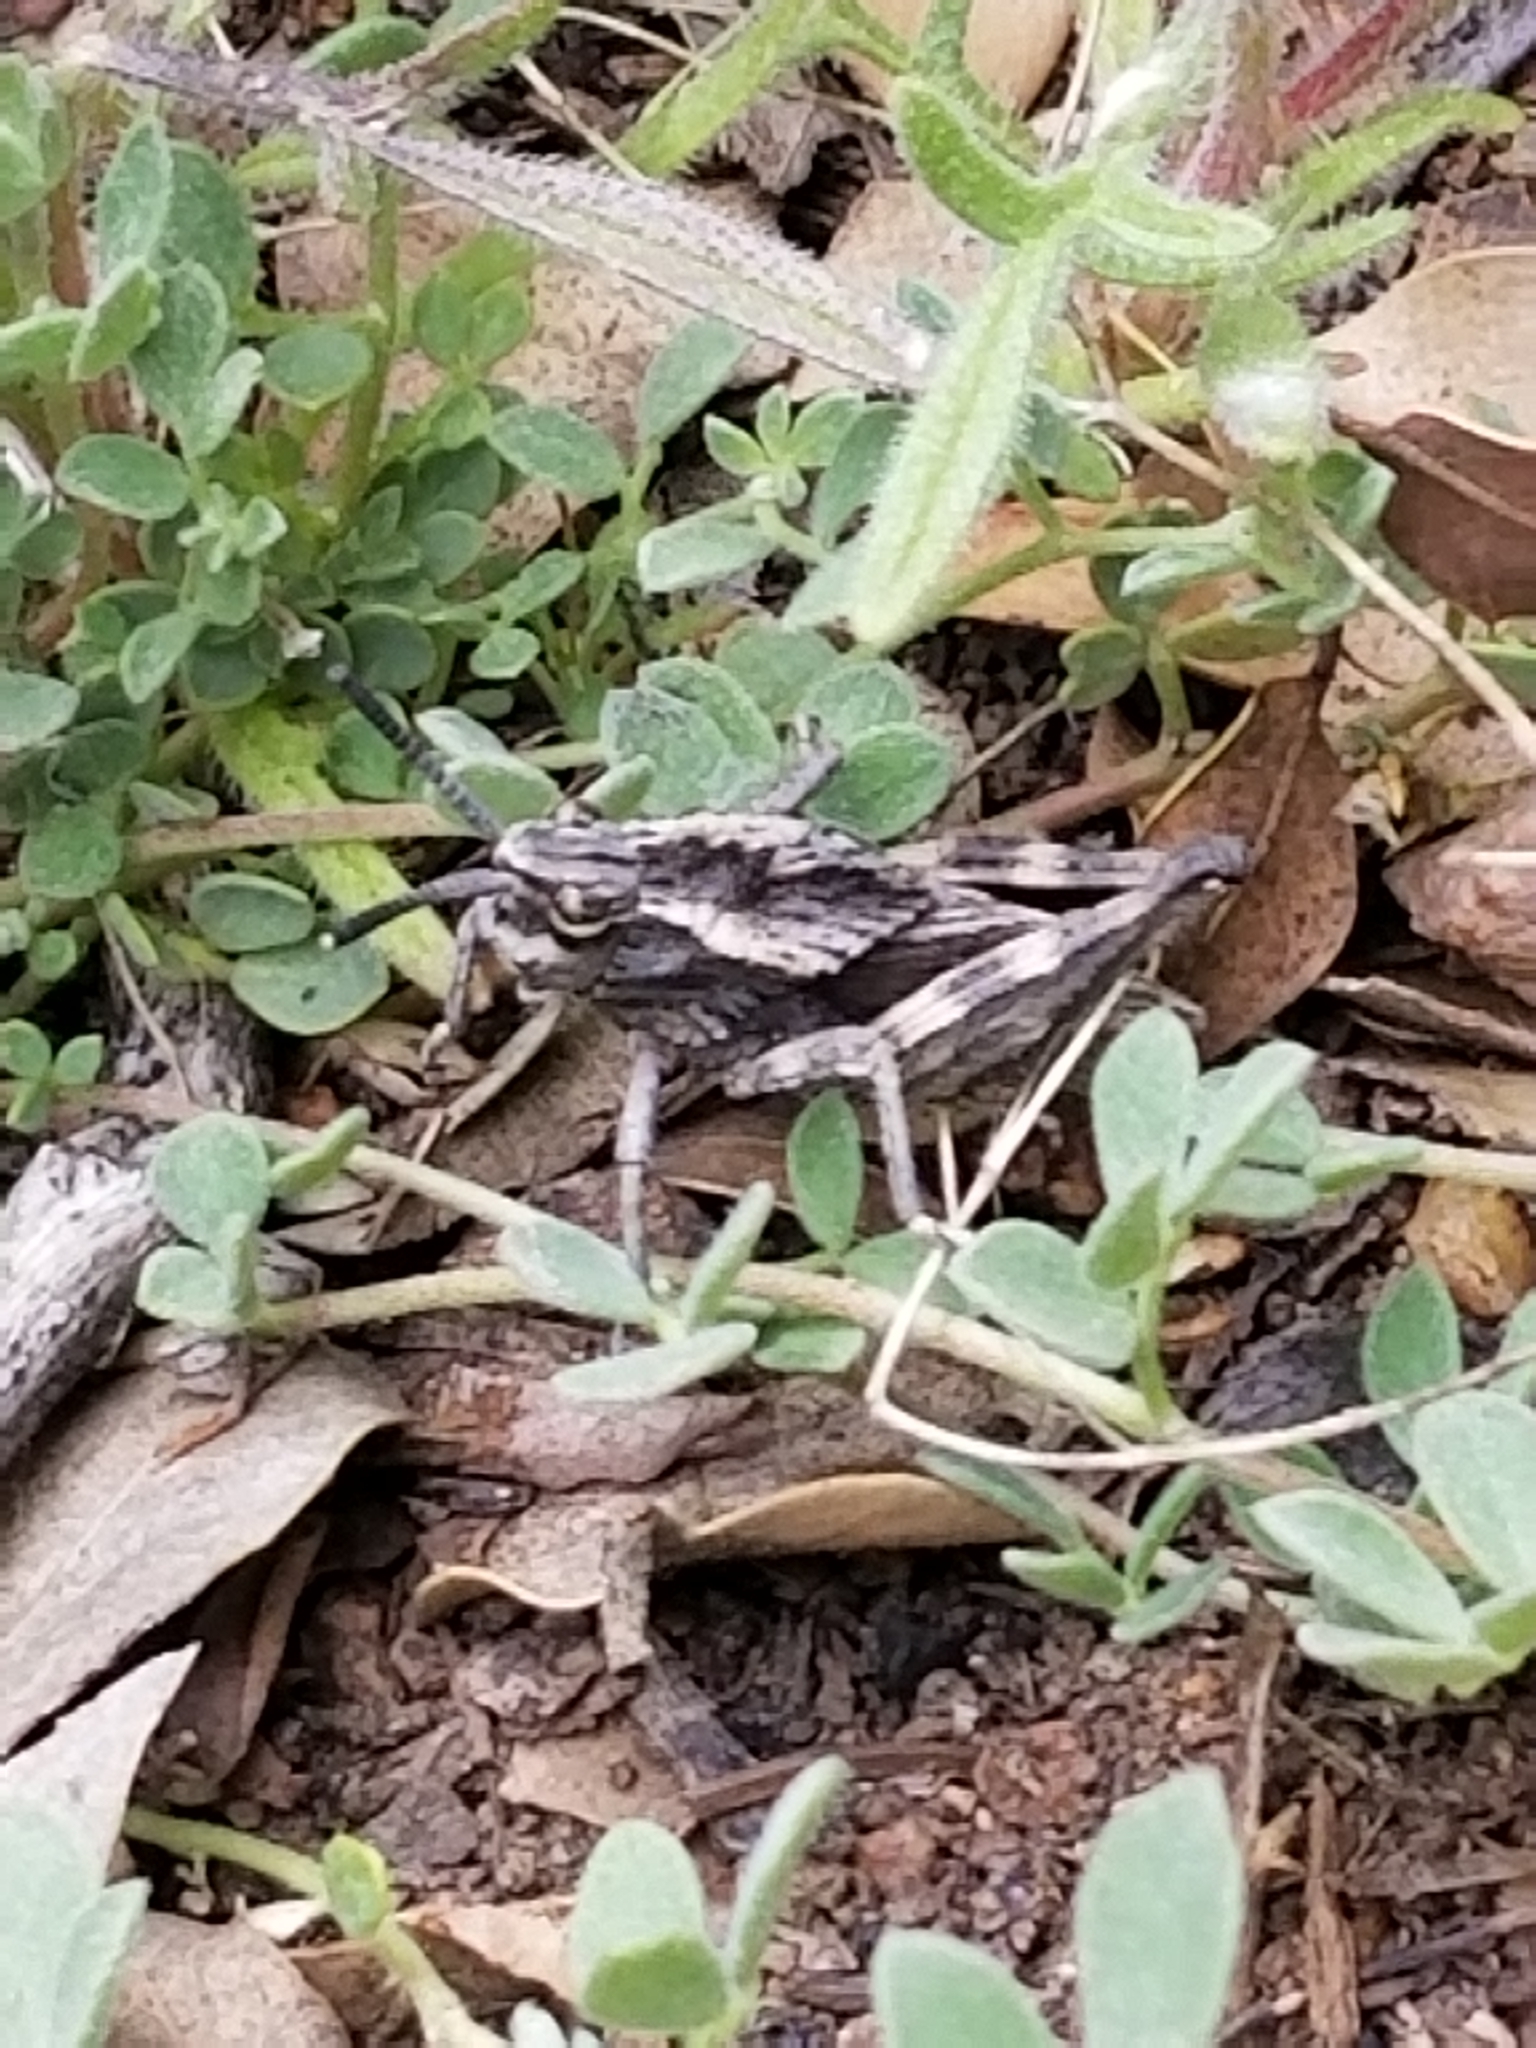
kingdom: Animalia
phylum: Arthropoda
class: Insecta
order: Orthoptera
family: Romaleidae
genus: Dracotettix
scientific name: Dracotettix monstrosus
